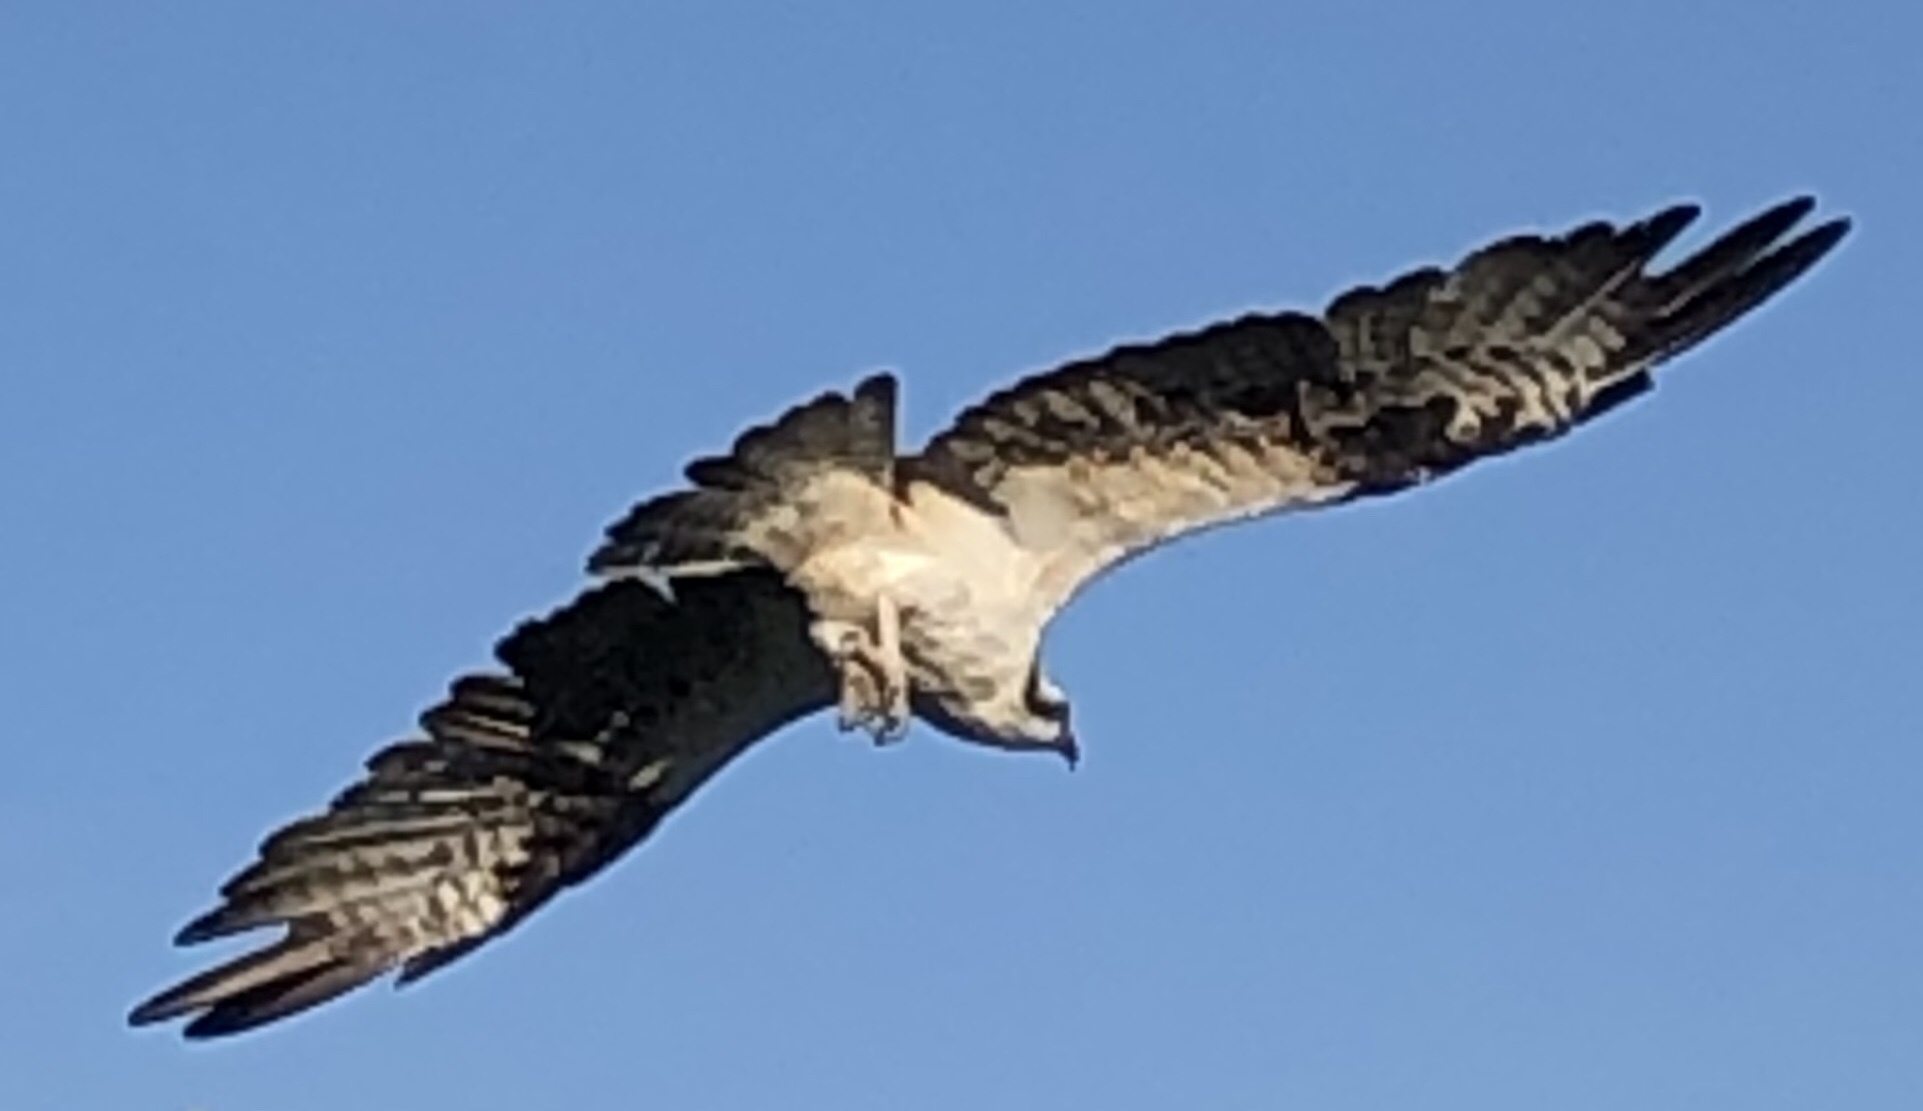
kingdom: Animalia
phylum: Chordata
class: Aves
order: Accipitriformes
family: Pandionidae
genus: Pandion
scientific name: Pandion haliaetus
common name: Osprey
